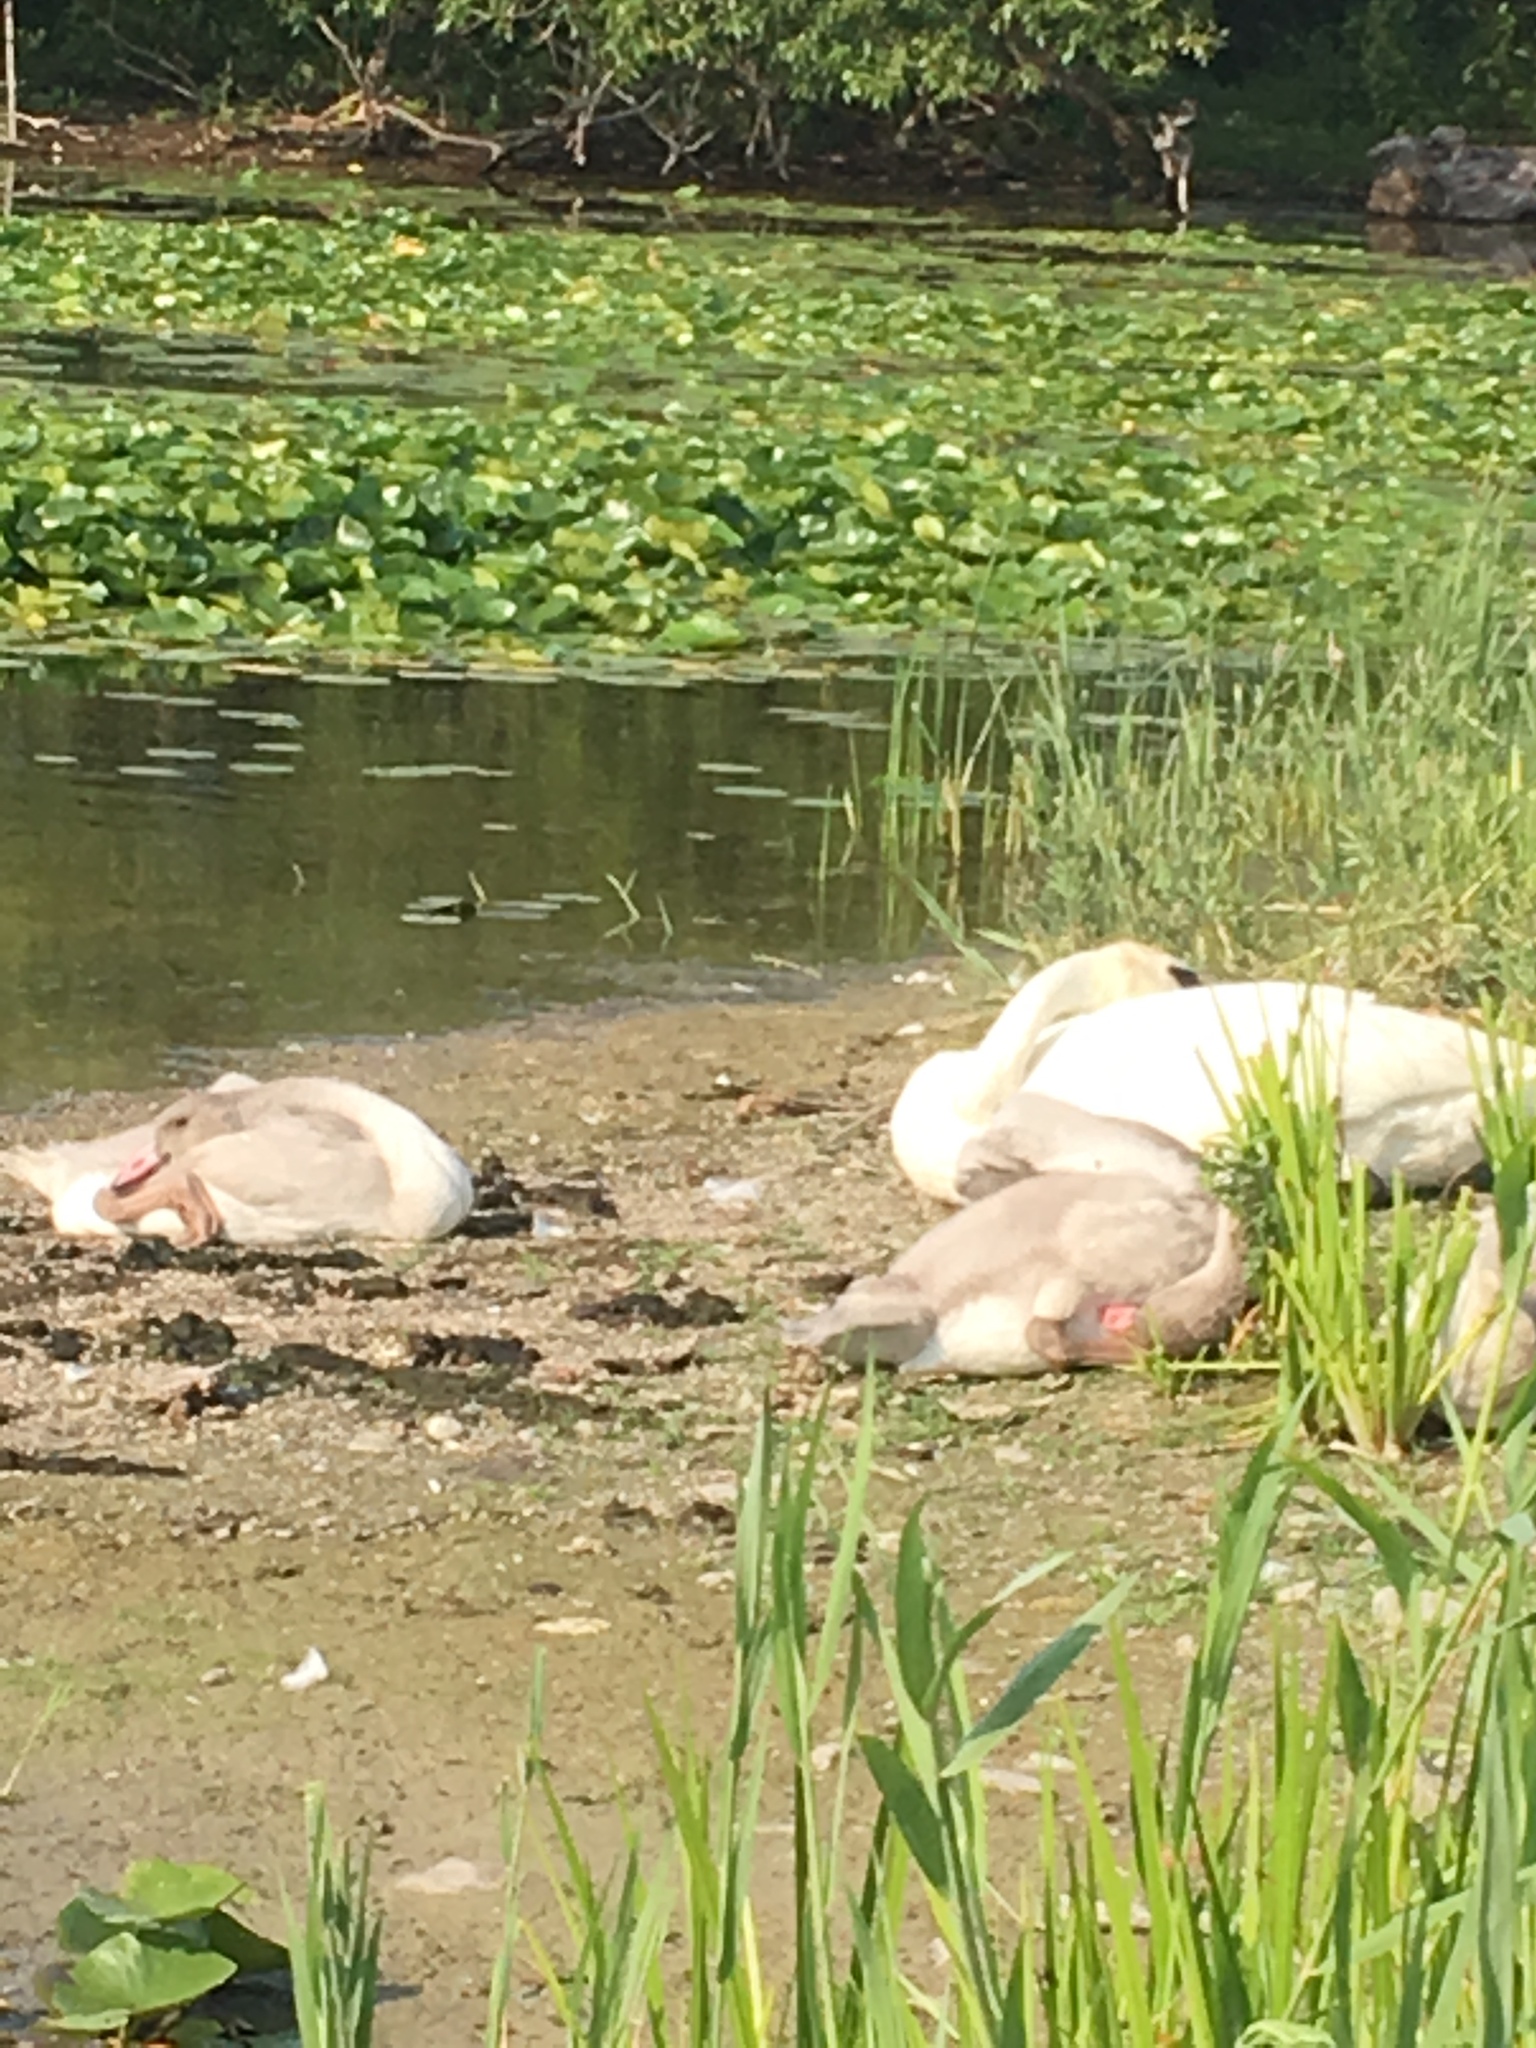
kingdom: Animalia
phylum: Chordata
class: Aves
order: Anseriformes
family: Anatidae
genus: Cygnus
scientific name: Cygnus buccinator
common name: Trumpeter swan
